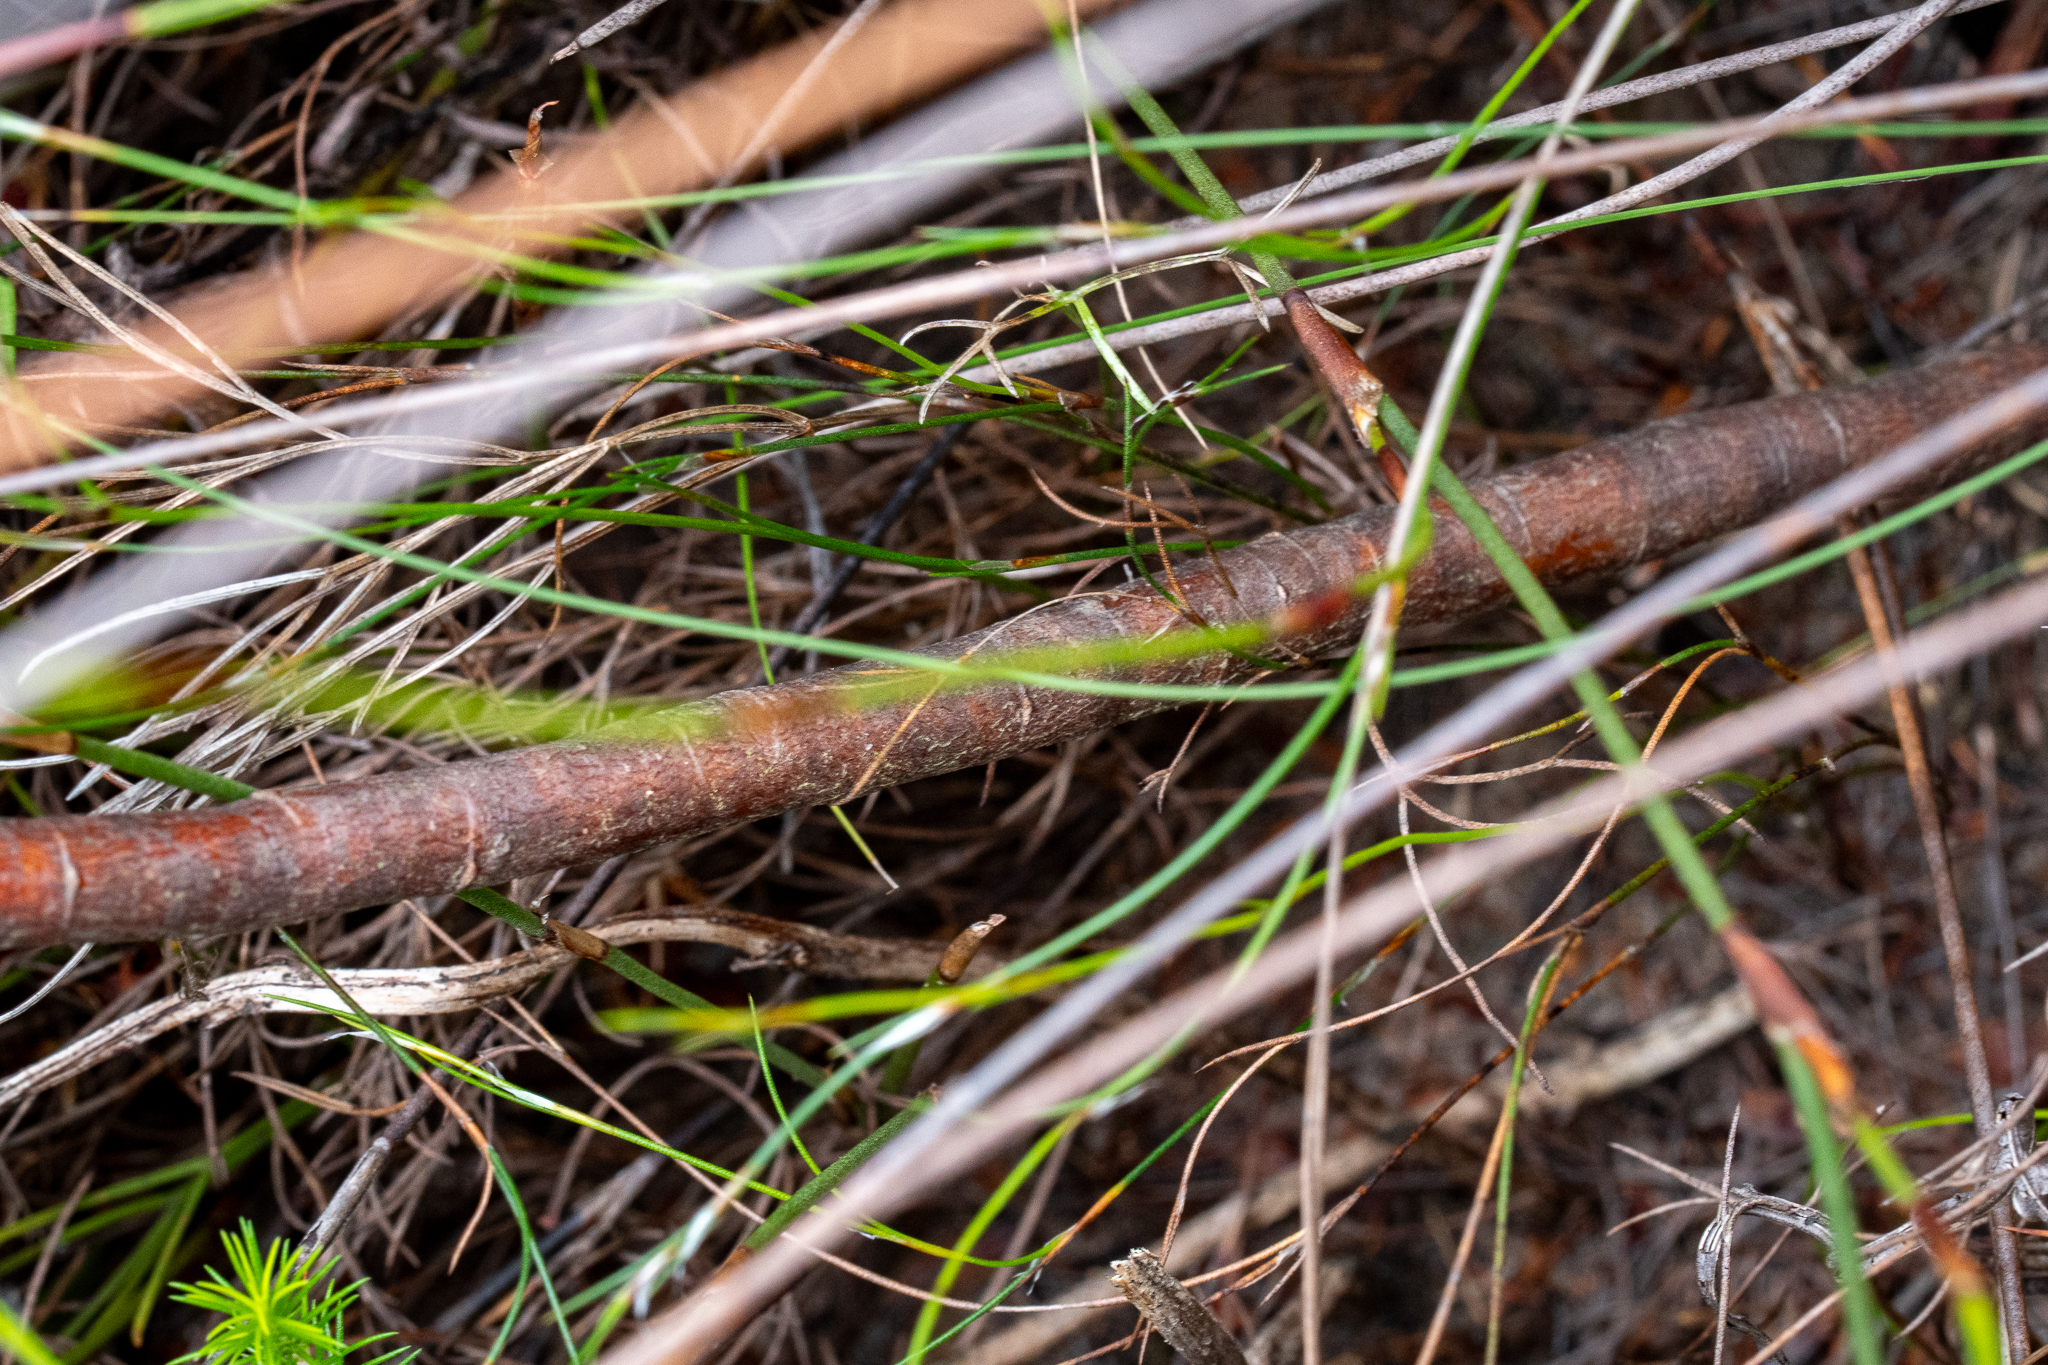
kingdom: Plantae
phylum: Tracheophyta
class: Magnoliopsida
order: Proteales
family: Proteaceae
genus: Serruria
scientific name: Serruria phylicoides
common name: Bearded spiderhead
